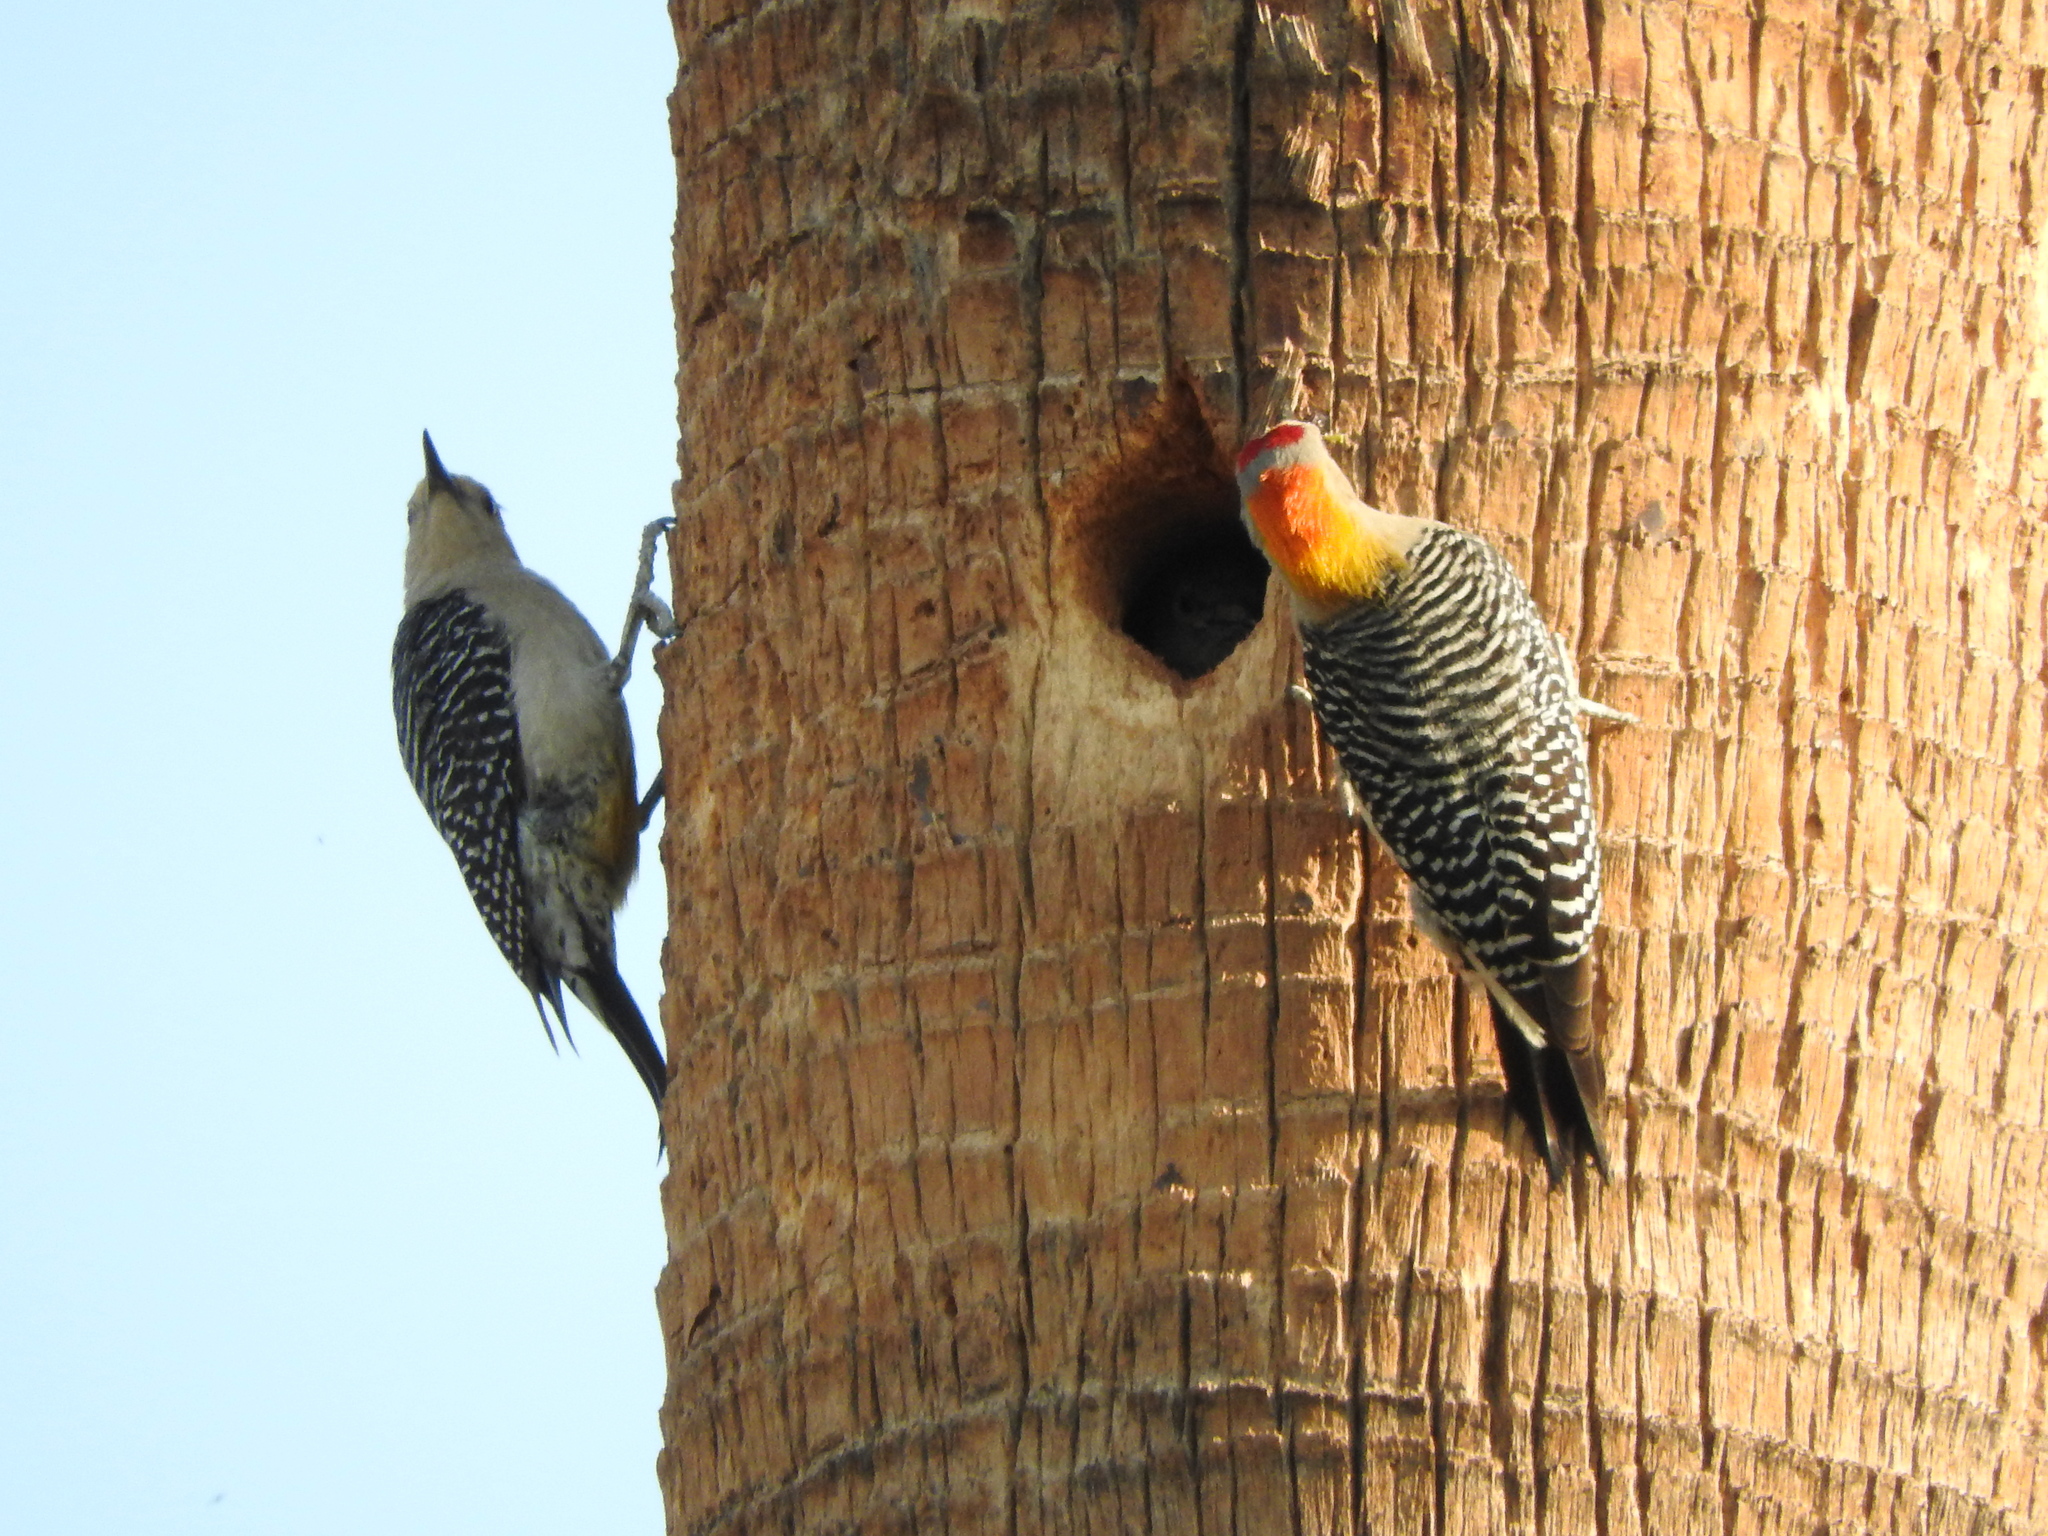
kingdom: Animalia
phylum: Chordata
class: Aves
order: Piciformes
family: Picidae
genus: Melanerpes
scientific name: Melanerpes aurifrons
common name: Golden-fronted woodpecker
